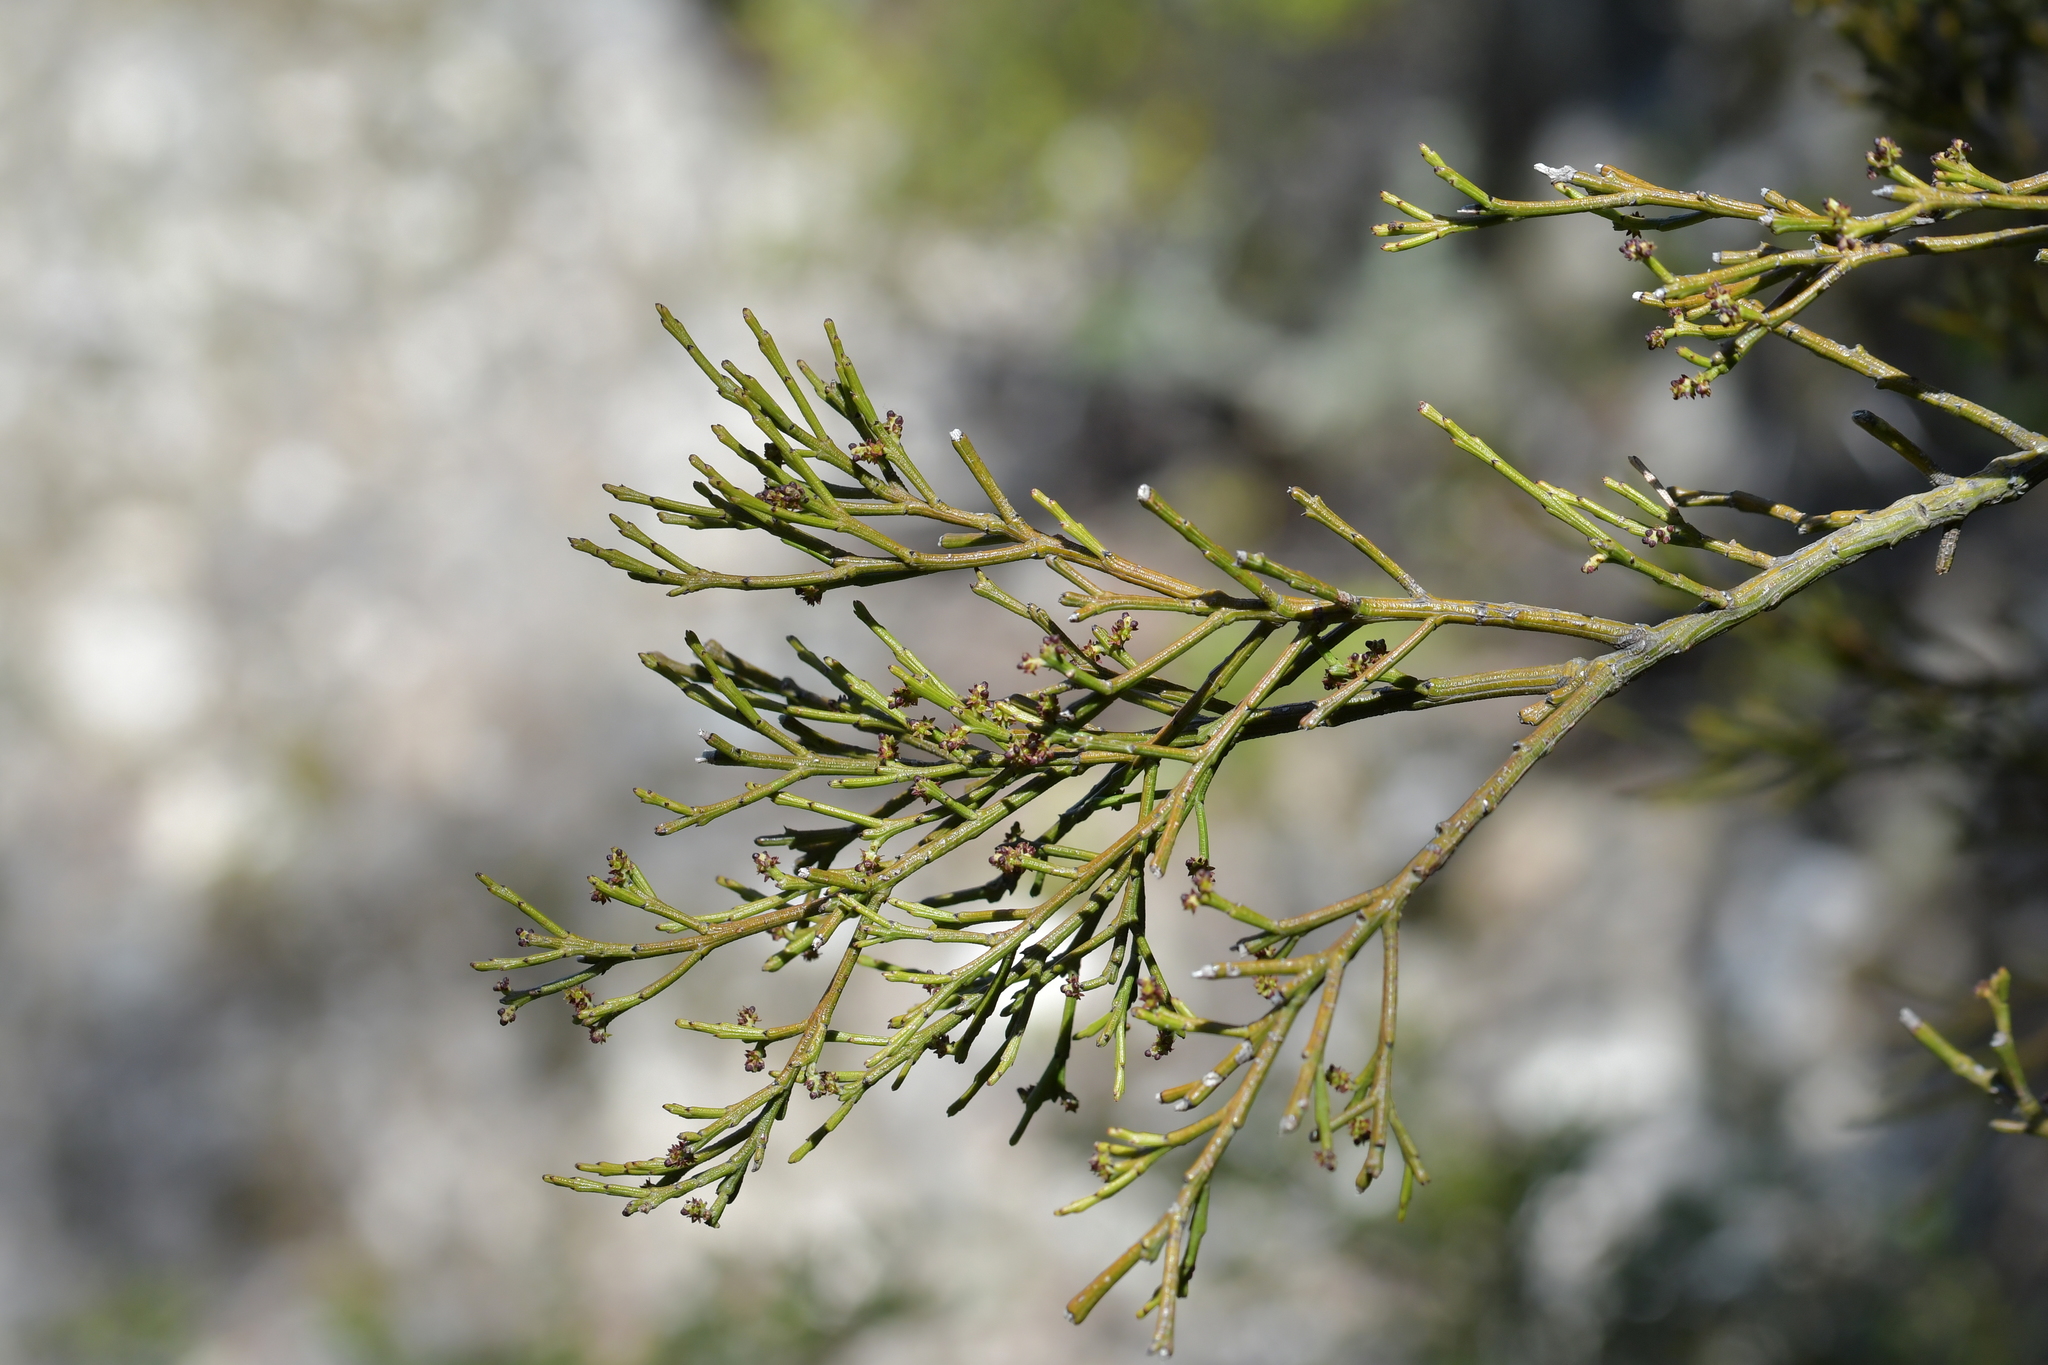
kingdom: Plantae
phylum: Tracheophyta
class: Magnoliopsida
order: Santalales
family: Santalaceae
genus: Exocarpos
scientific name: Exocarpos bidwillii
